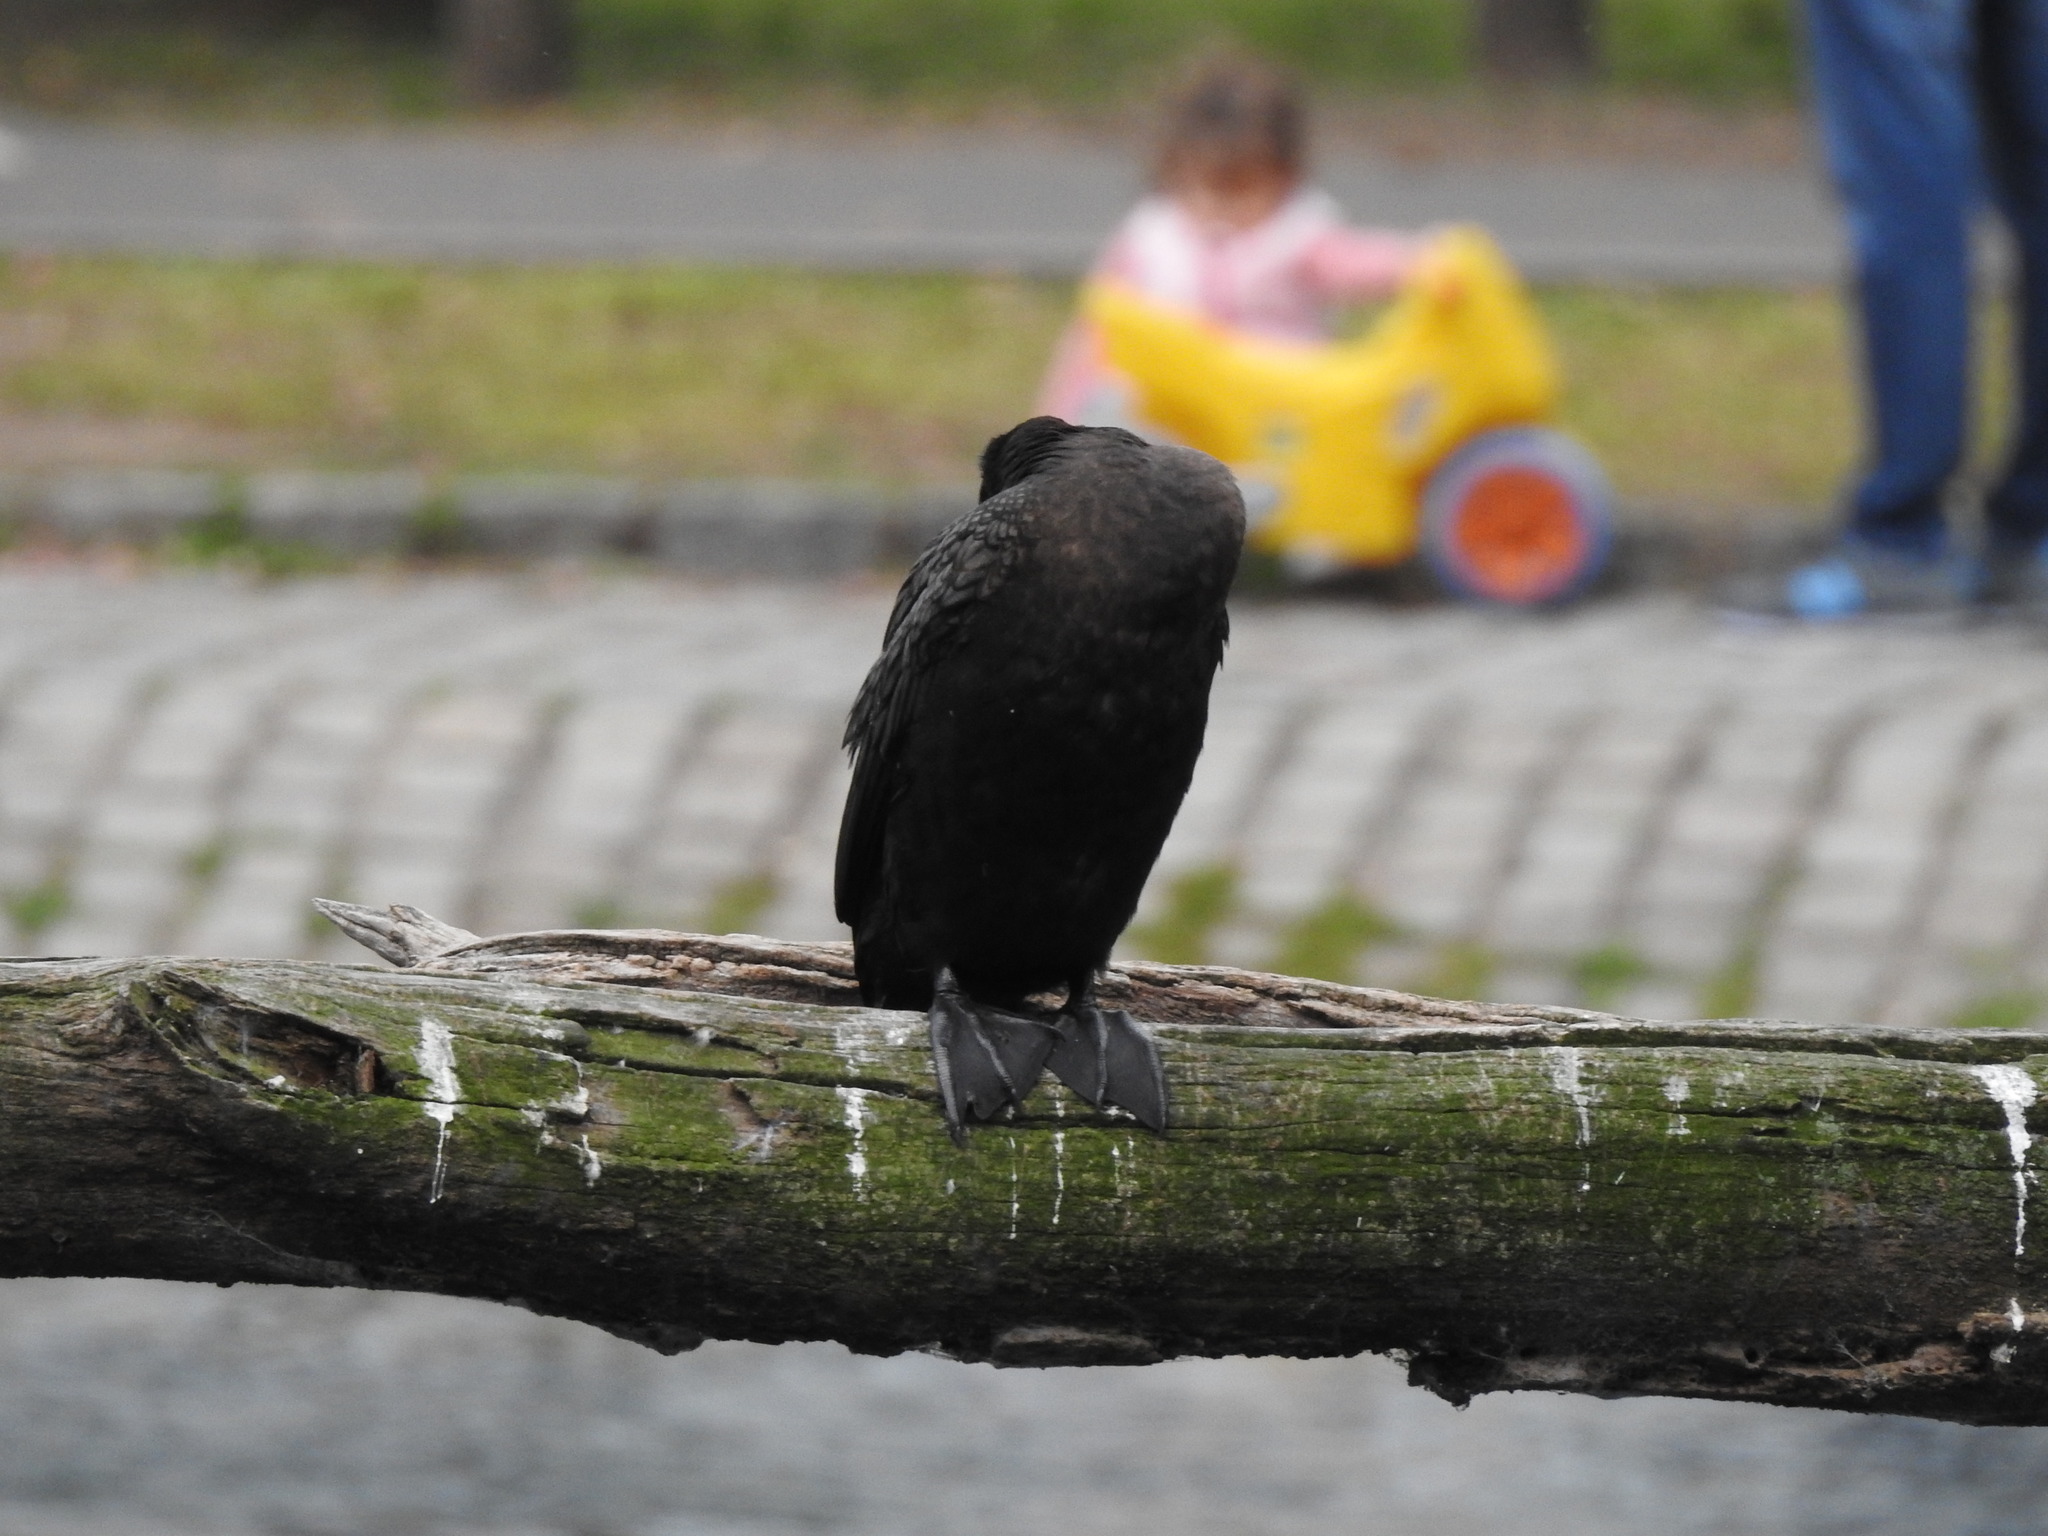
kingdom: Animalia
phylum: Chordata
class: Aves
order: Suliformes
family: Phalacrocoracidae
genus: Phalacrocorax
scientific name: Phalacrocorax brasilianus
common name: Neotropic cormorant
